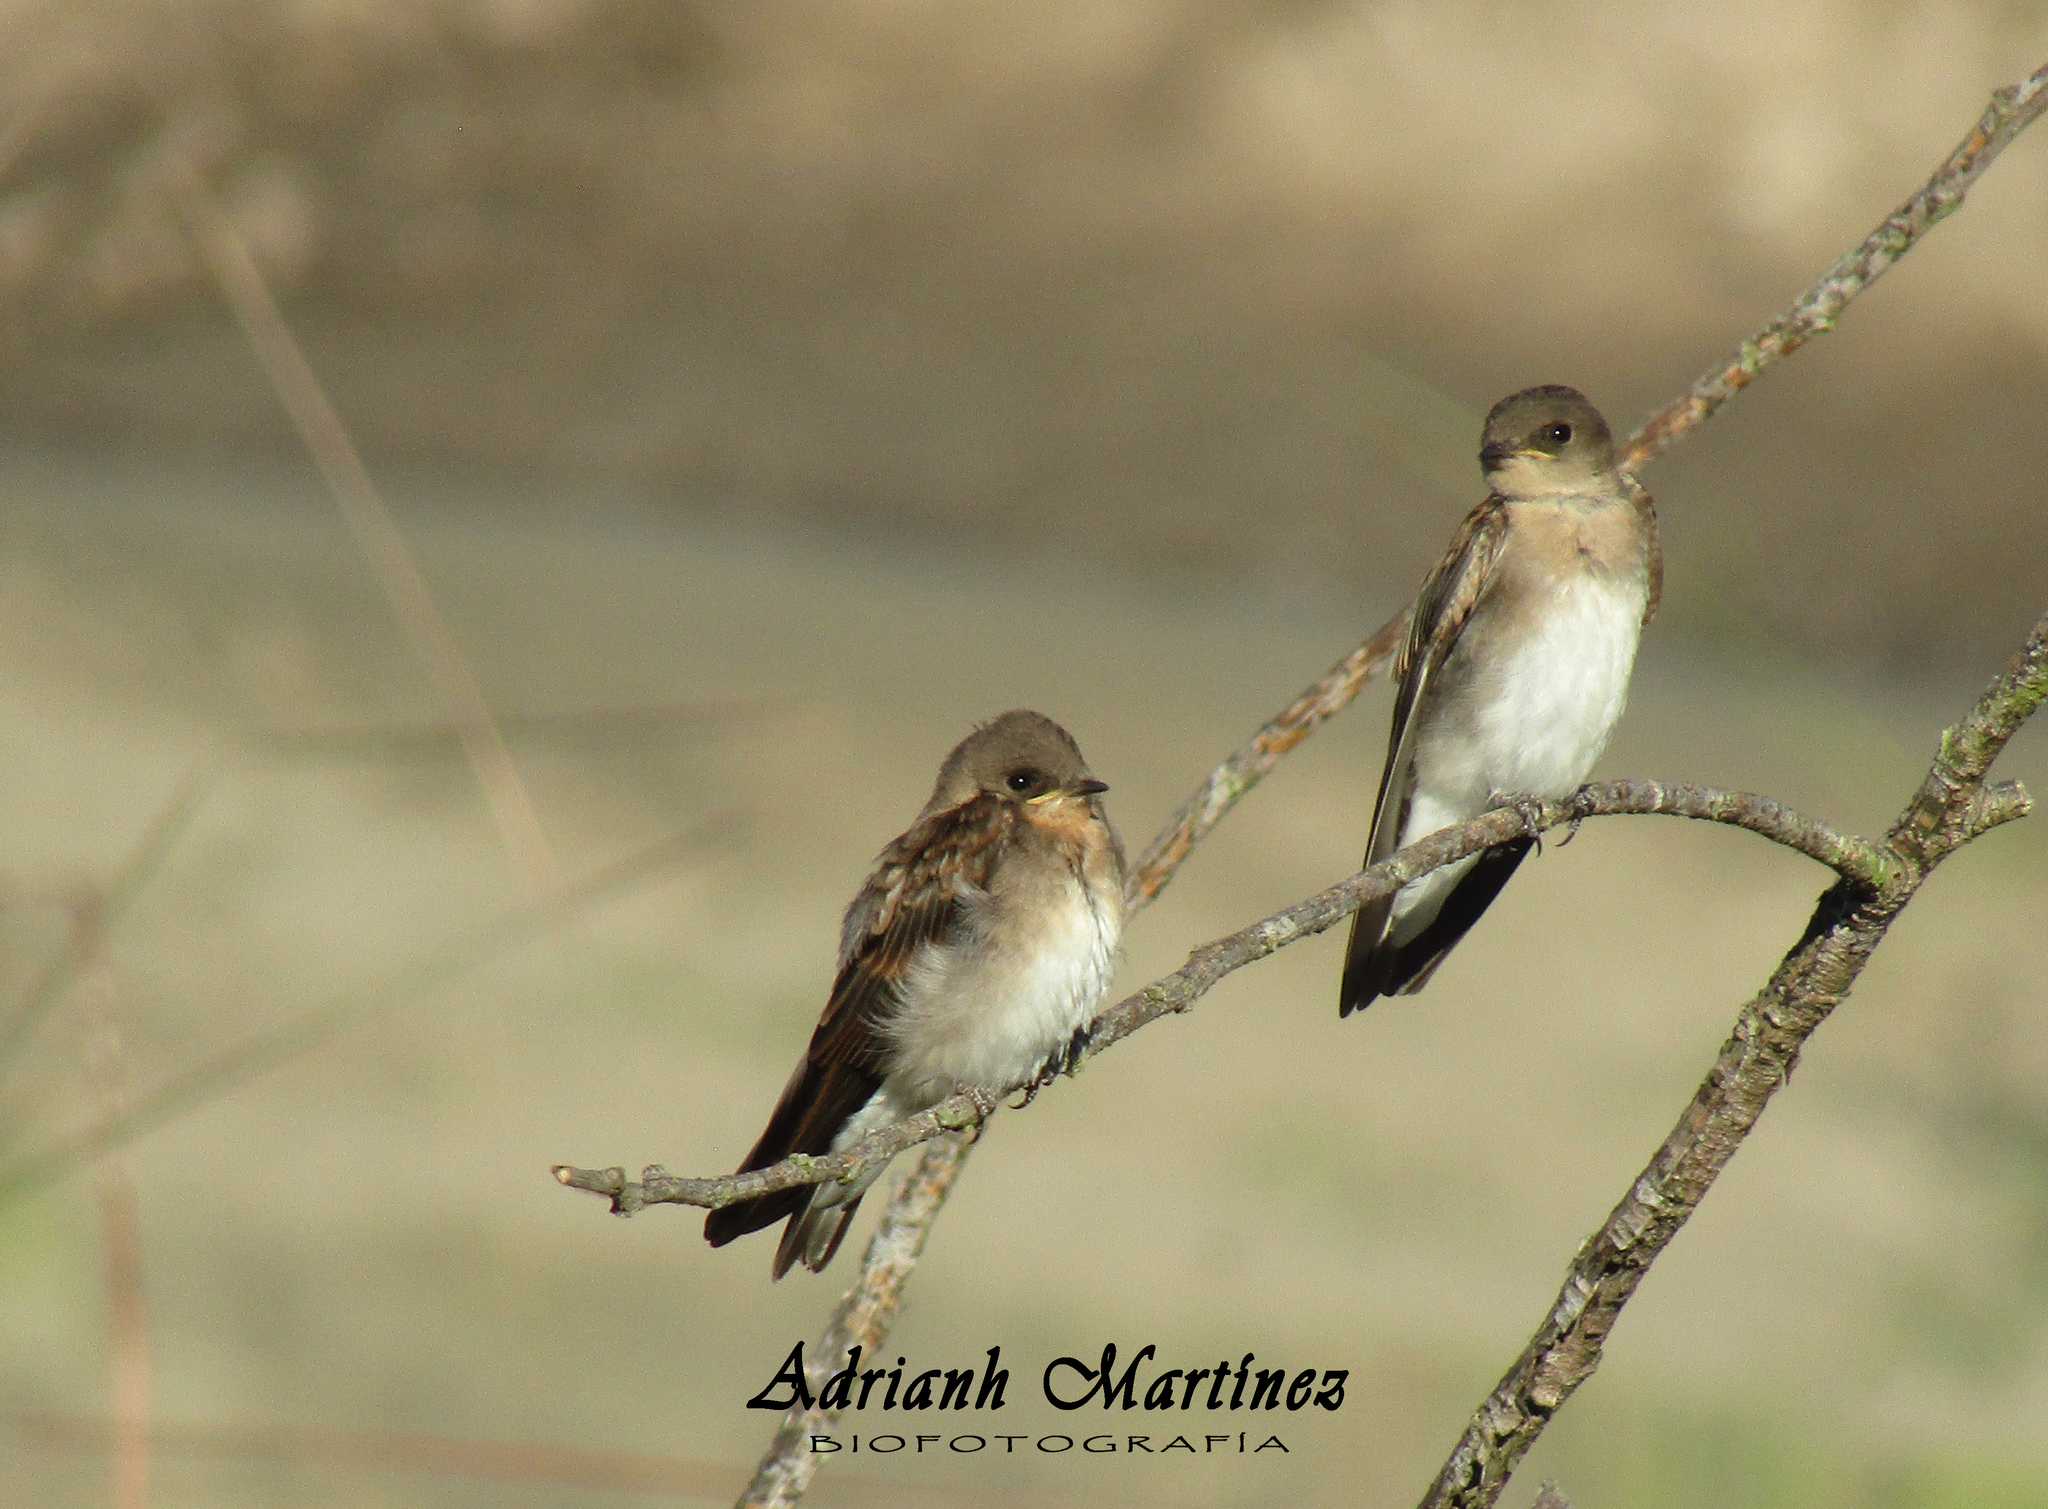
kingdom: Animalia
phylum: Chordata
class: Aves
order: Passeriformes
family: Hirundinidae
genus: Stelgidopteryx
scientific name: Stelgidopteryx serripennis
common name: Northern rough-winged swallow
